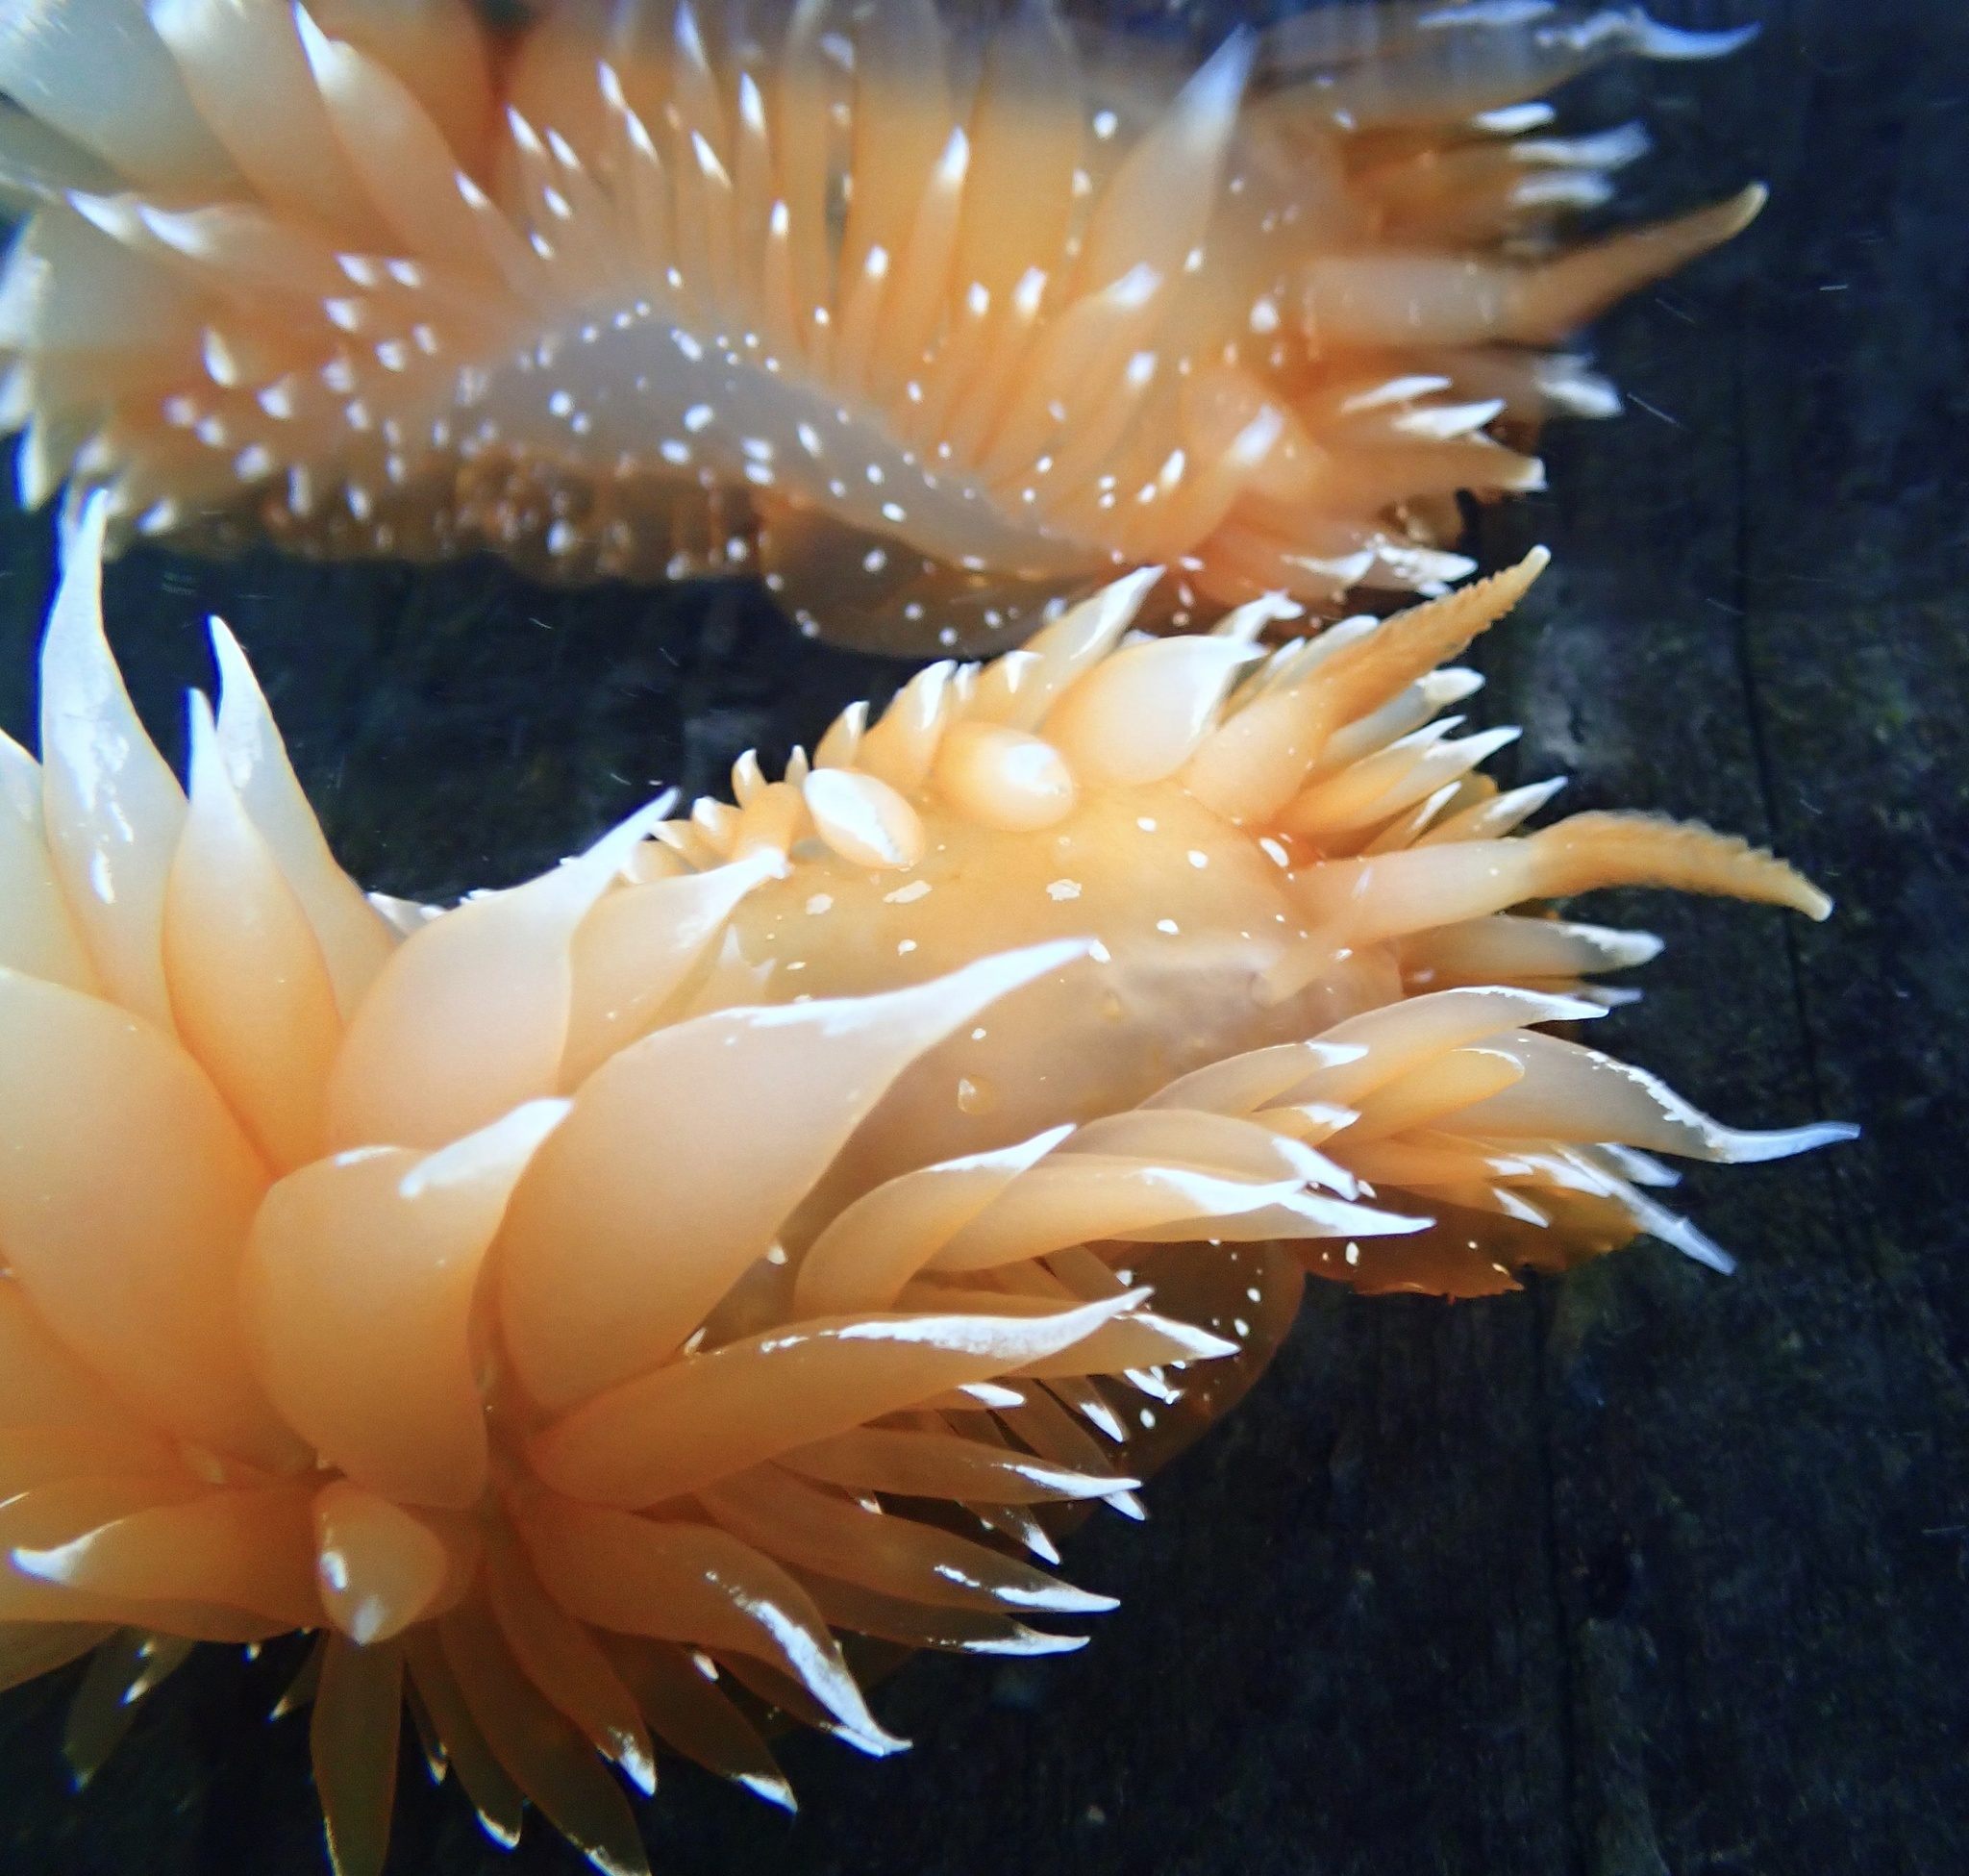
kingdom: Animalia
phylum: Mollusca
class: Gastropoda
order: Nudibranchia
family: Dironidae
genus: Dirona
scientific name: Dirona pellucida
